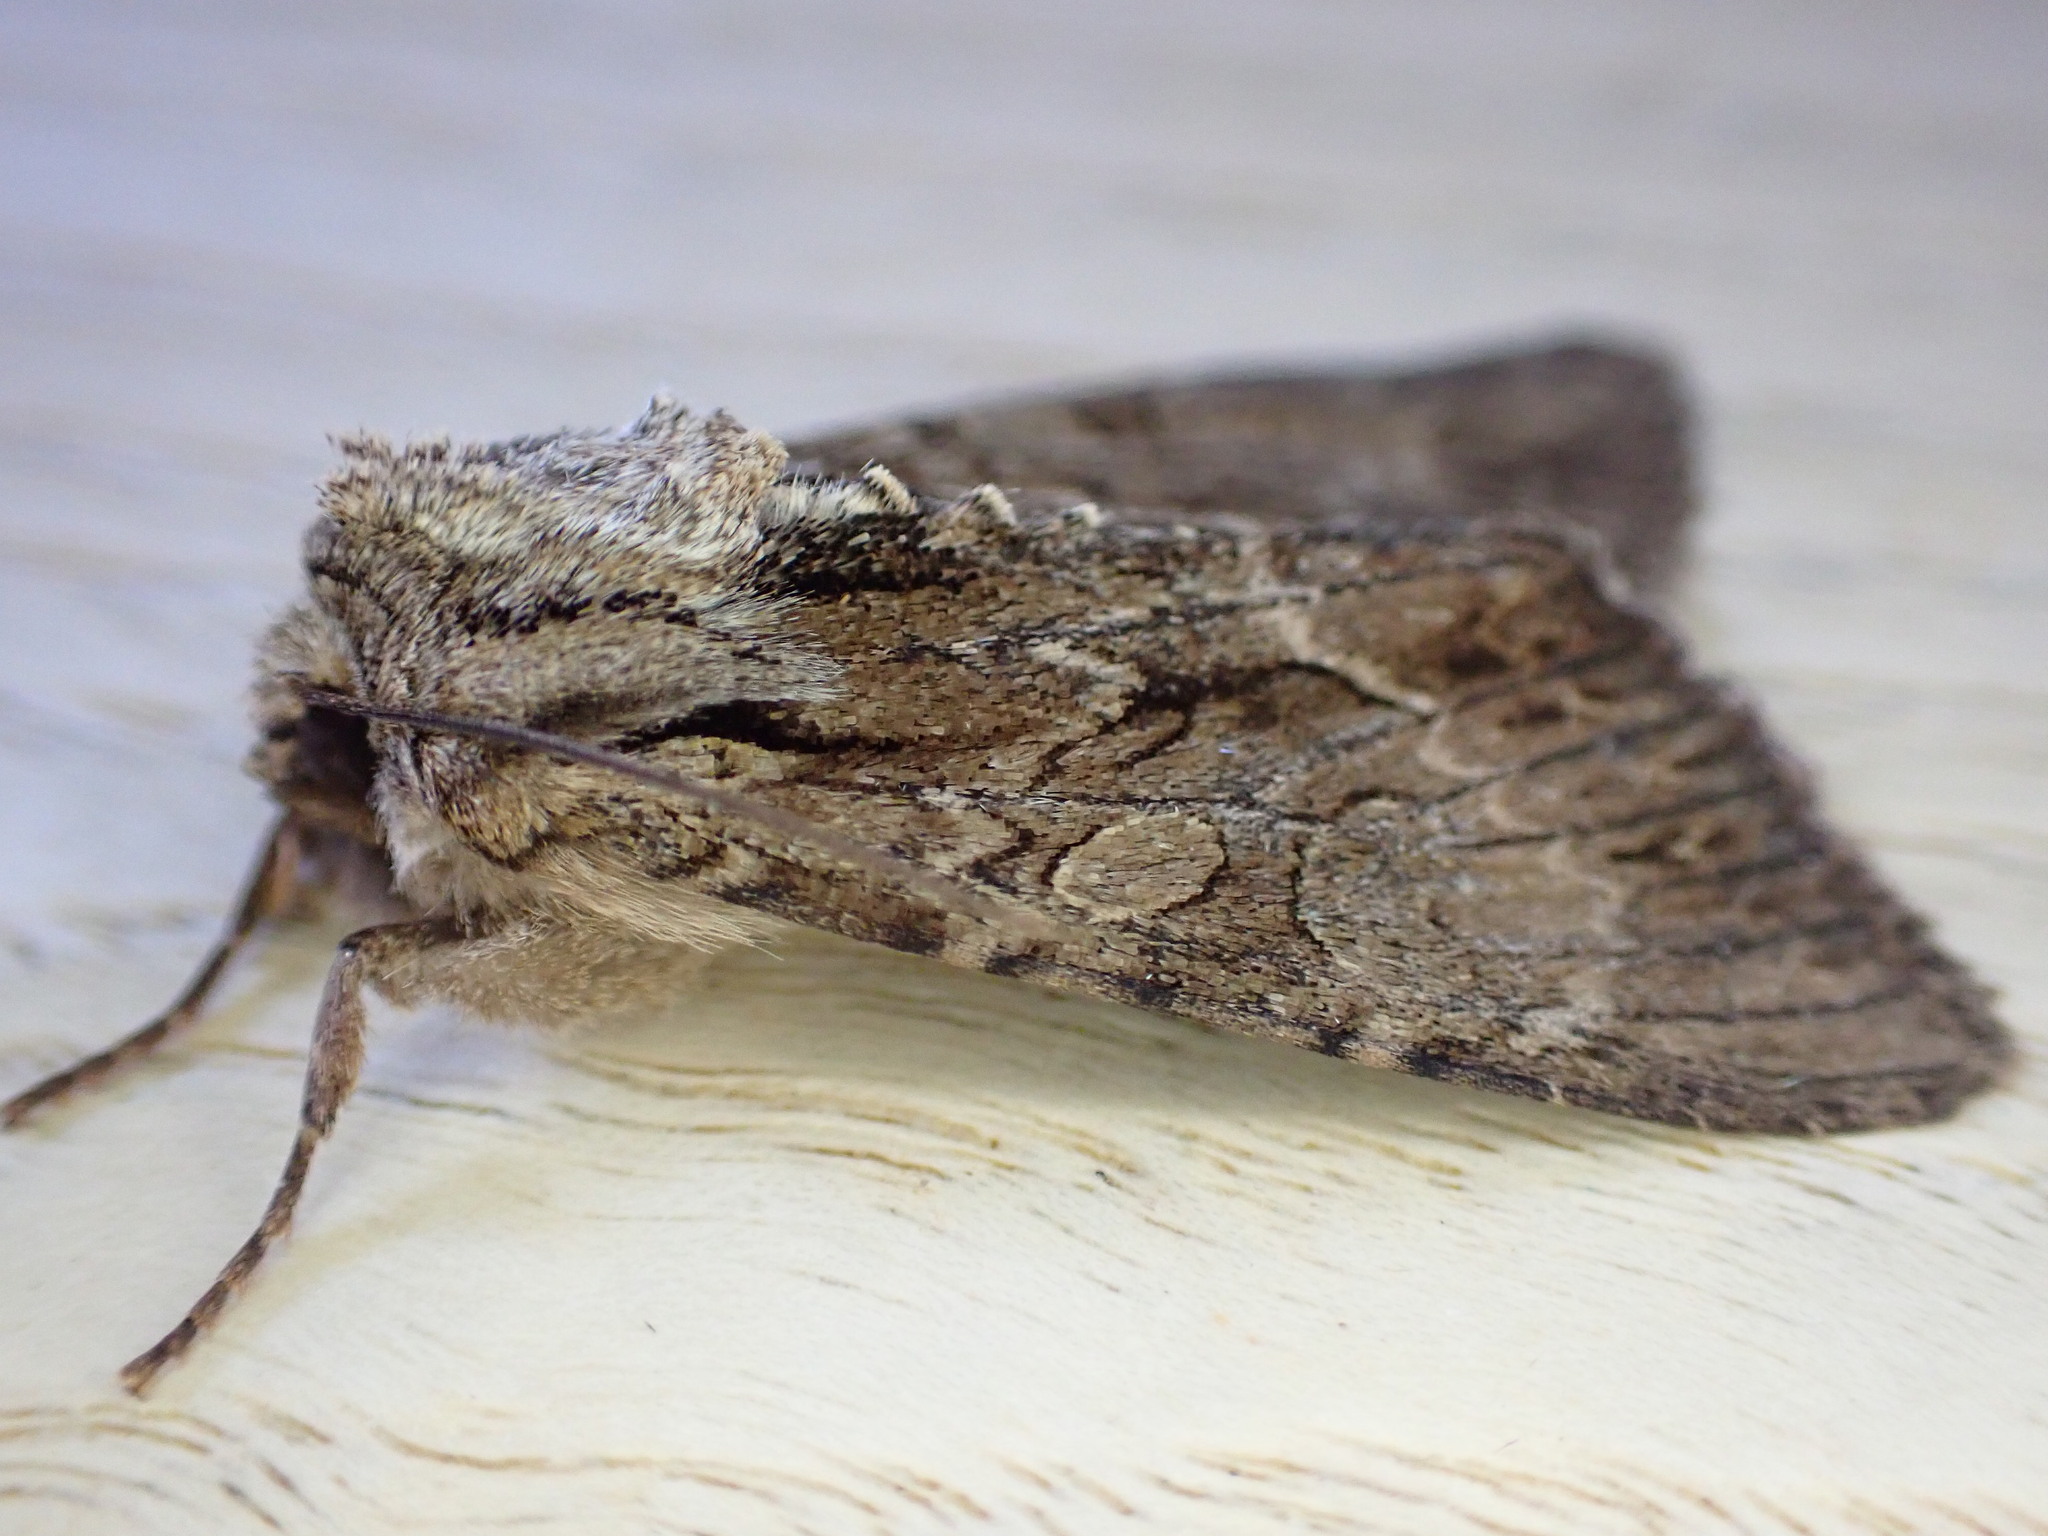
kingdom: Animalia
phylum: Arthropoda
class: Insecta
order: Lepidoptera
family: Noctuidae
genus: Apamea
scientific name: Apamea monoglypha
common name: Dark arches
